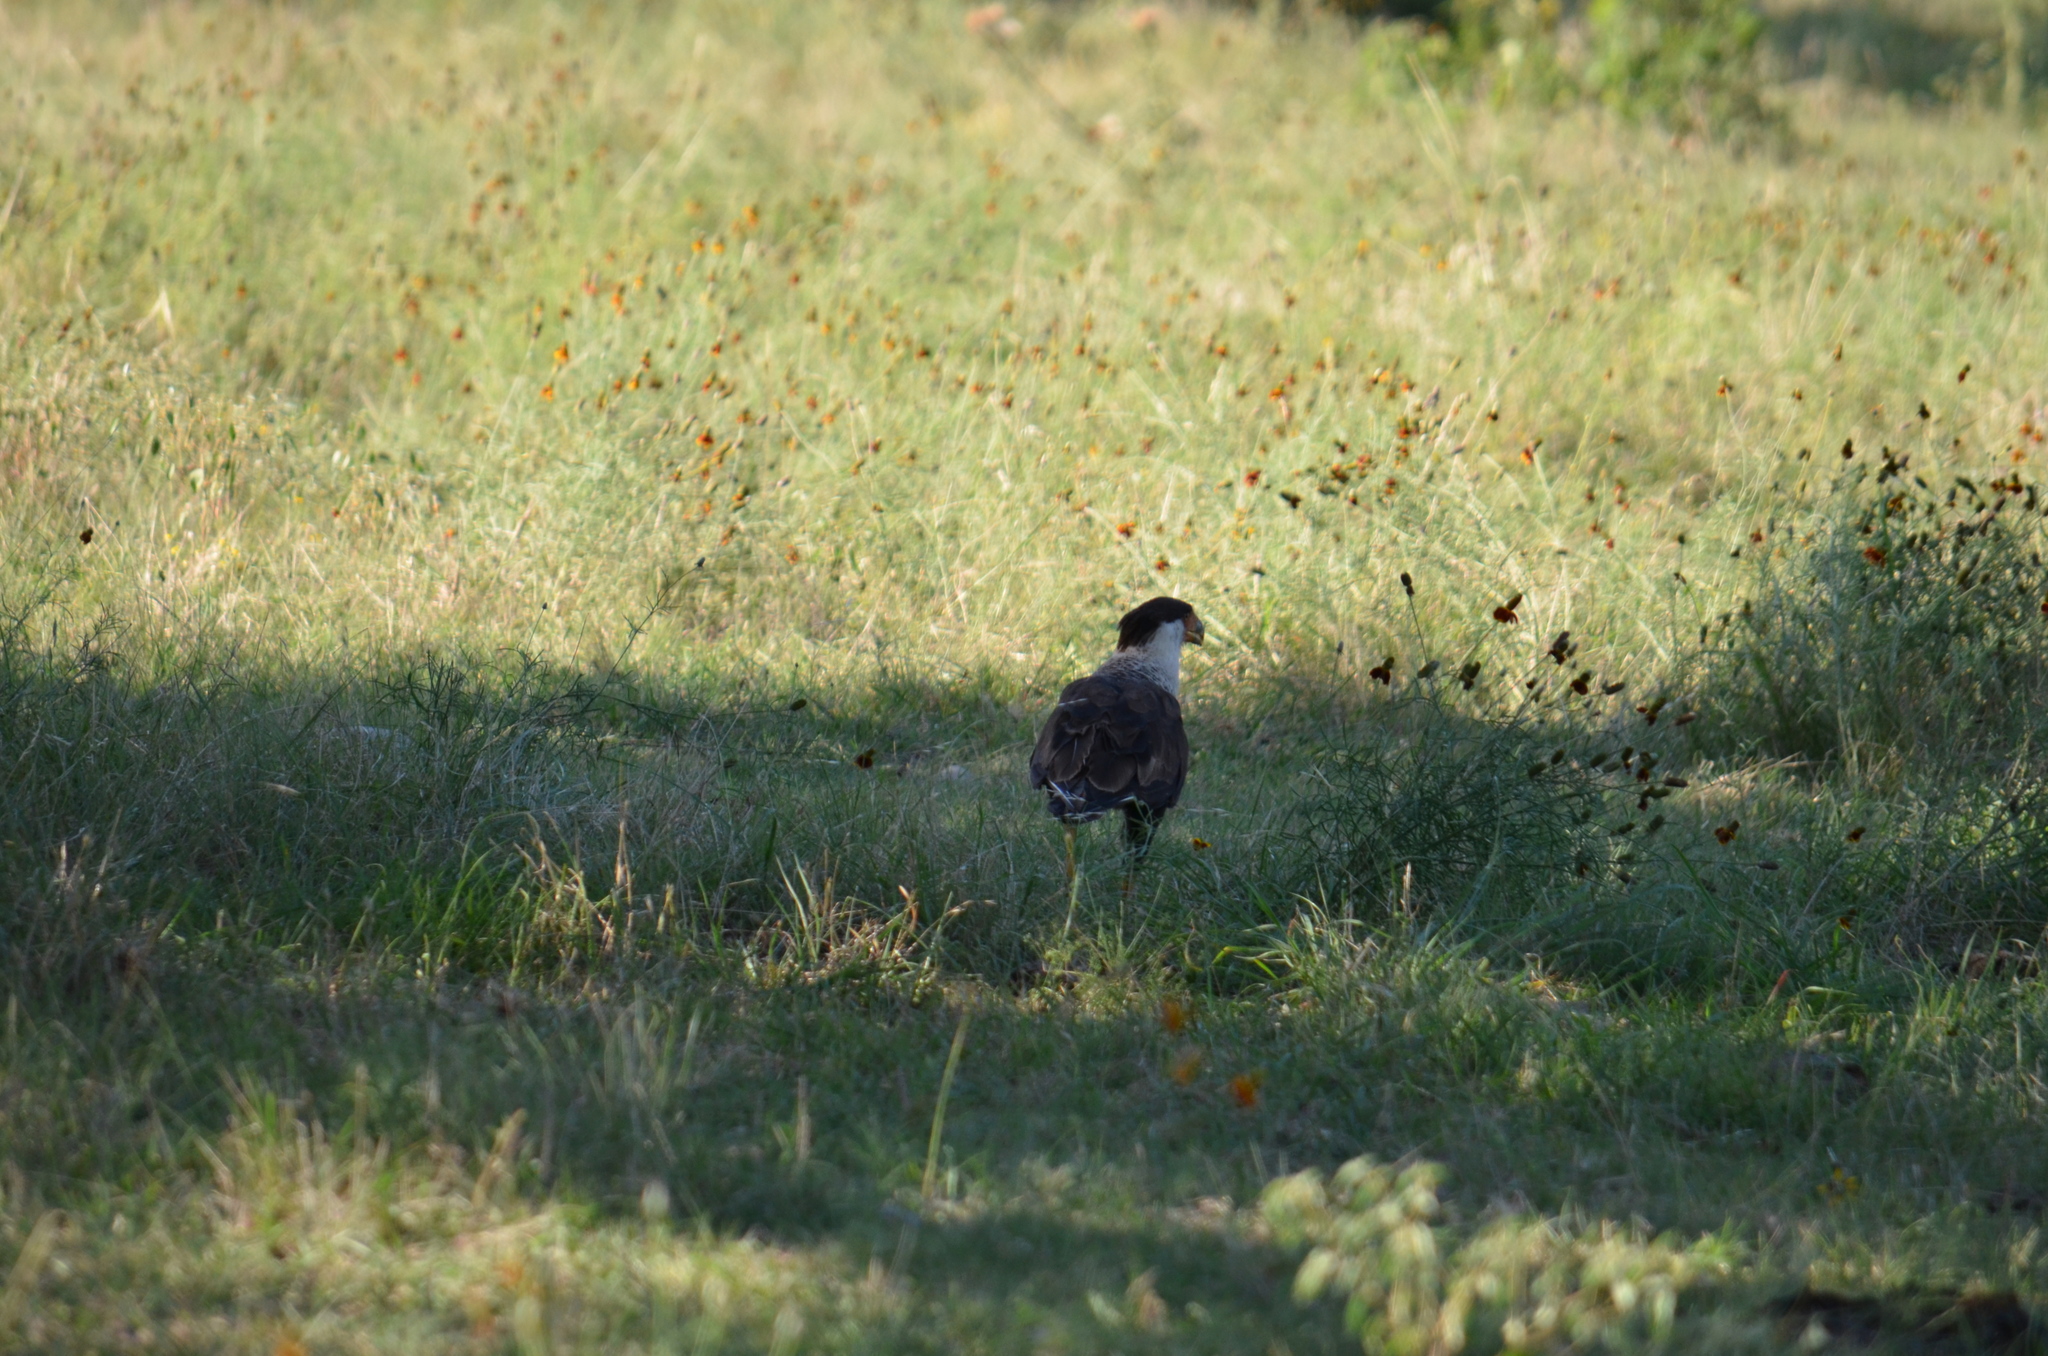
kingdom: Animalia
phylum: Chordata
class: Aves
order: Falconiformes
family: Falconidae
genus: Caracara
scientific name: Caracara plancus
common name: Southern caracara
